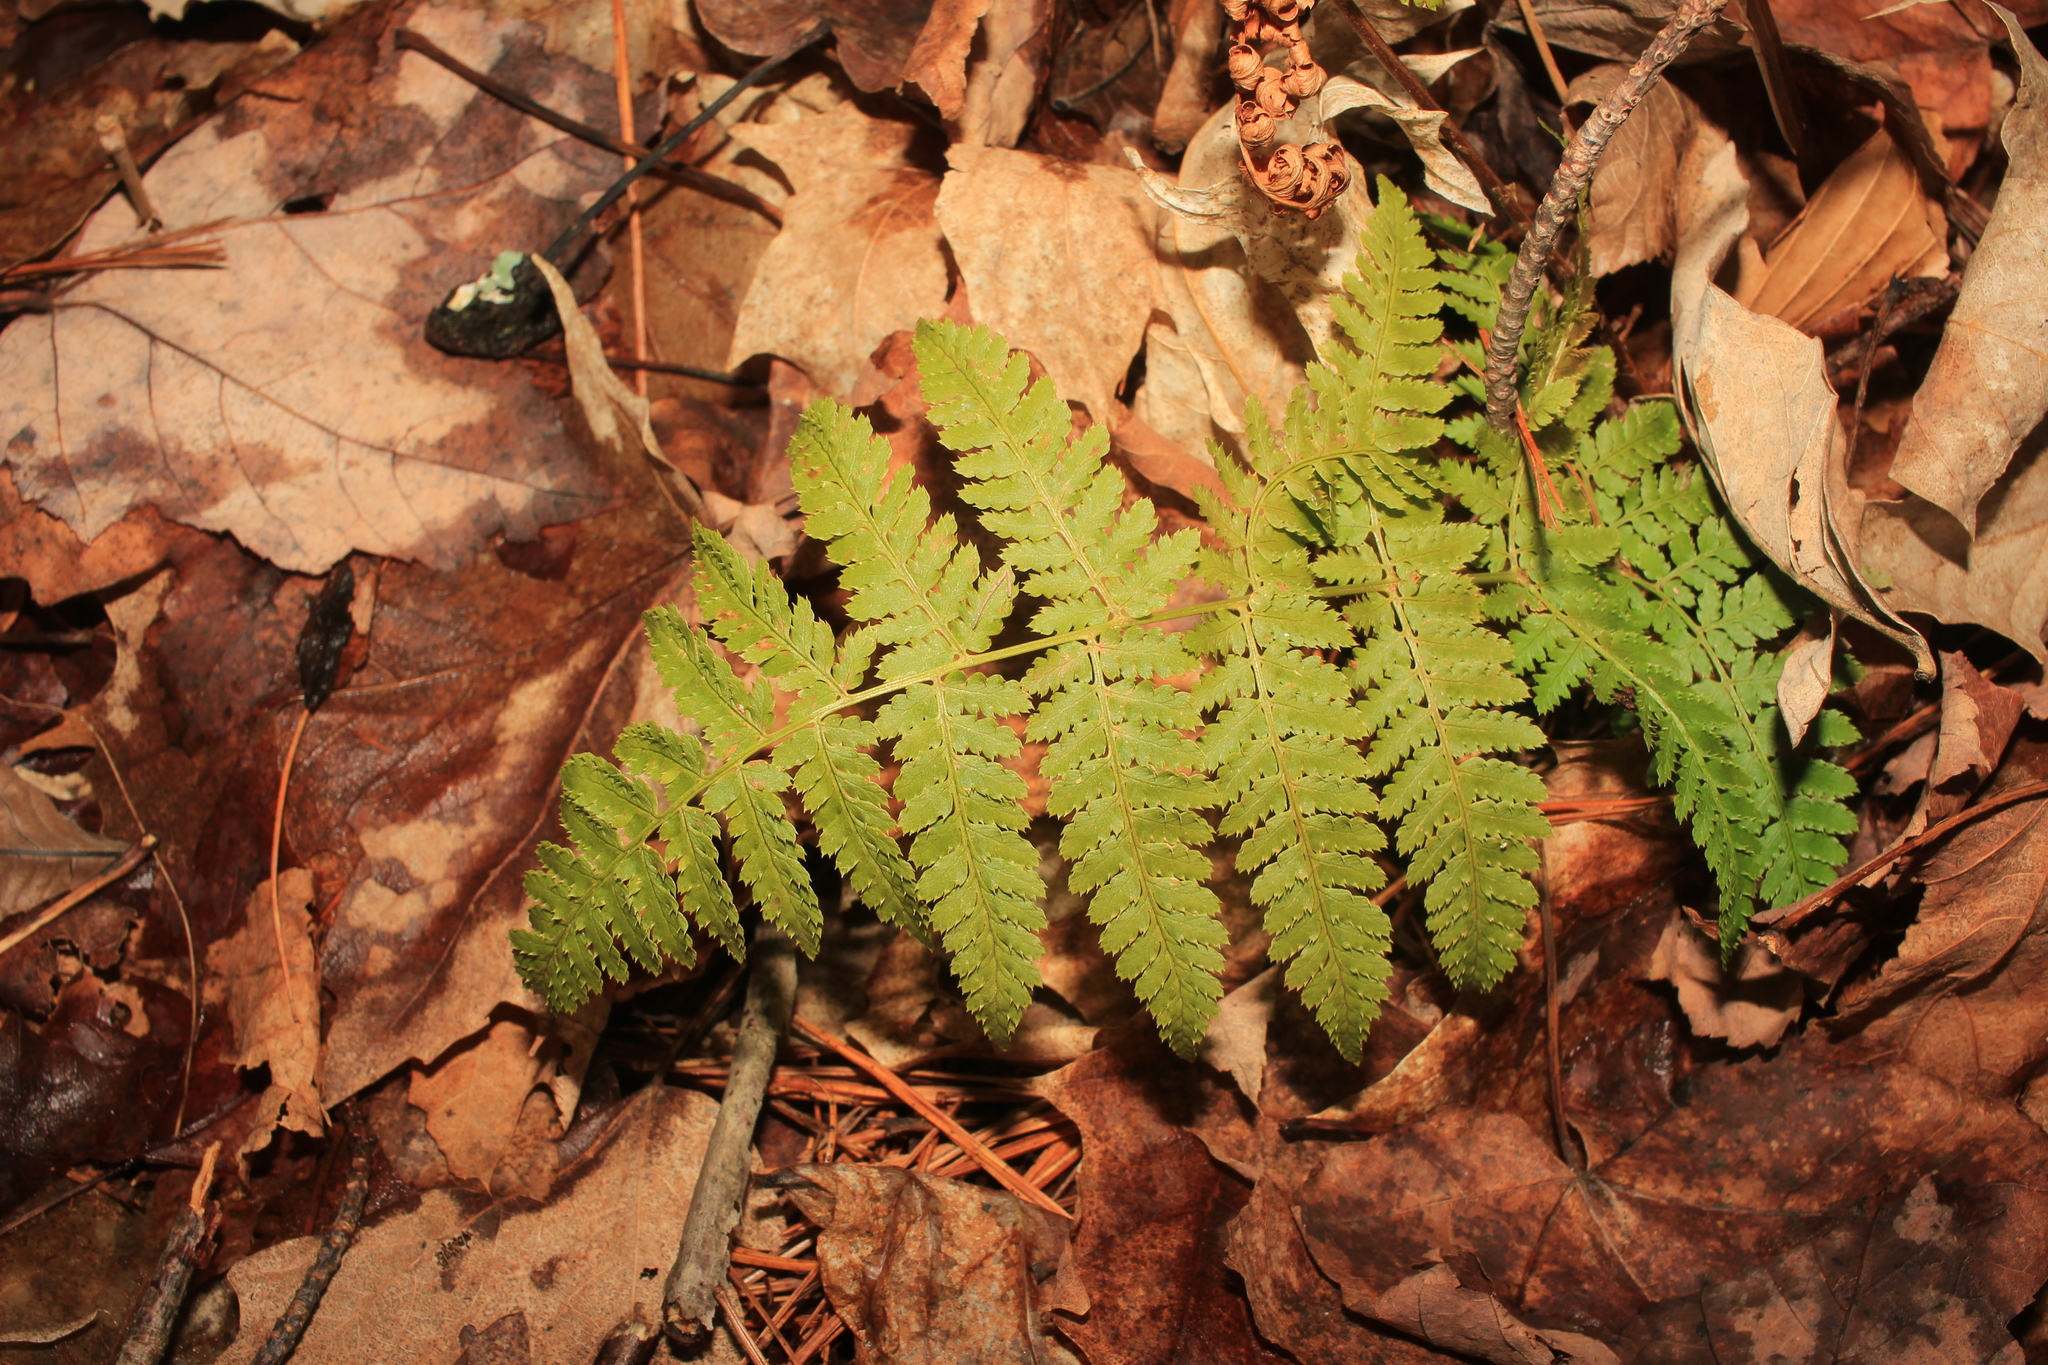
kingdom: Plantae
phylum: Tracheophyta
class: Polypodiopsida
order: Polypodiales
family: Dryopteridaceae
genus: Dryopteris
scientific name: Dryopteris intermedia
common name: Evergreen wood fern
